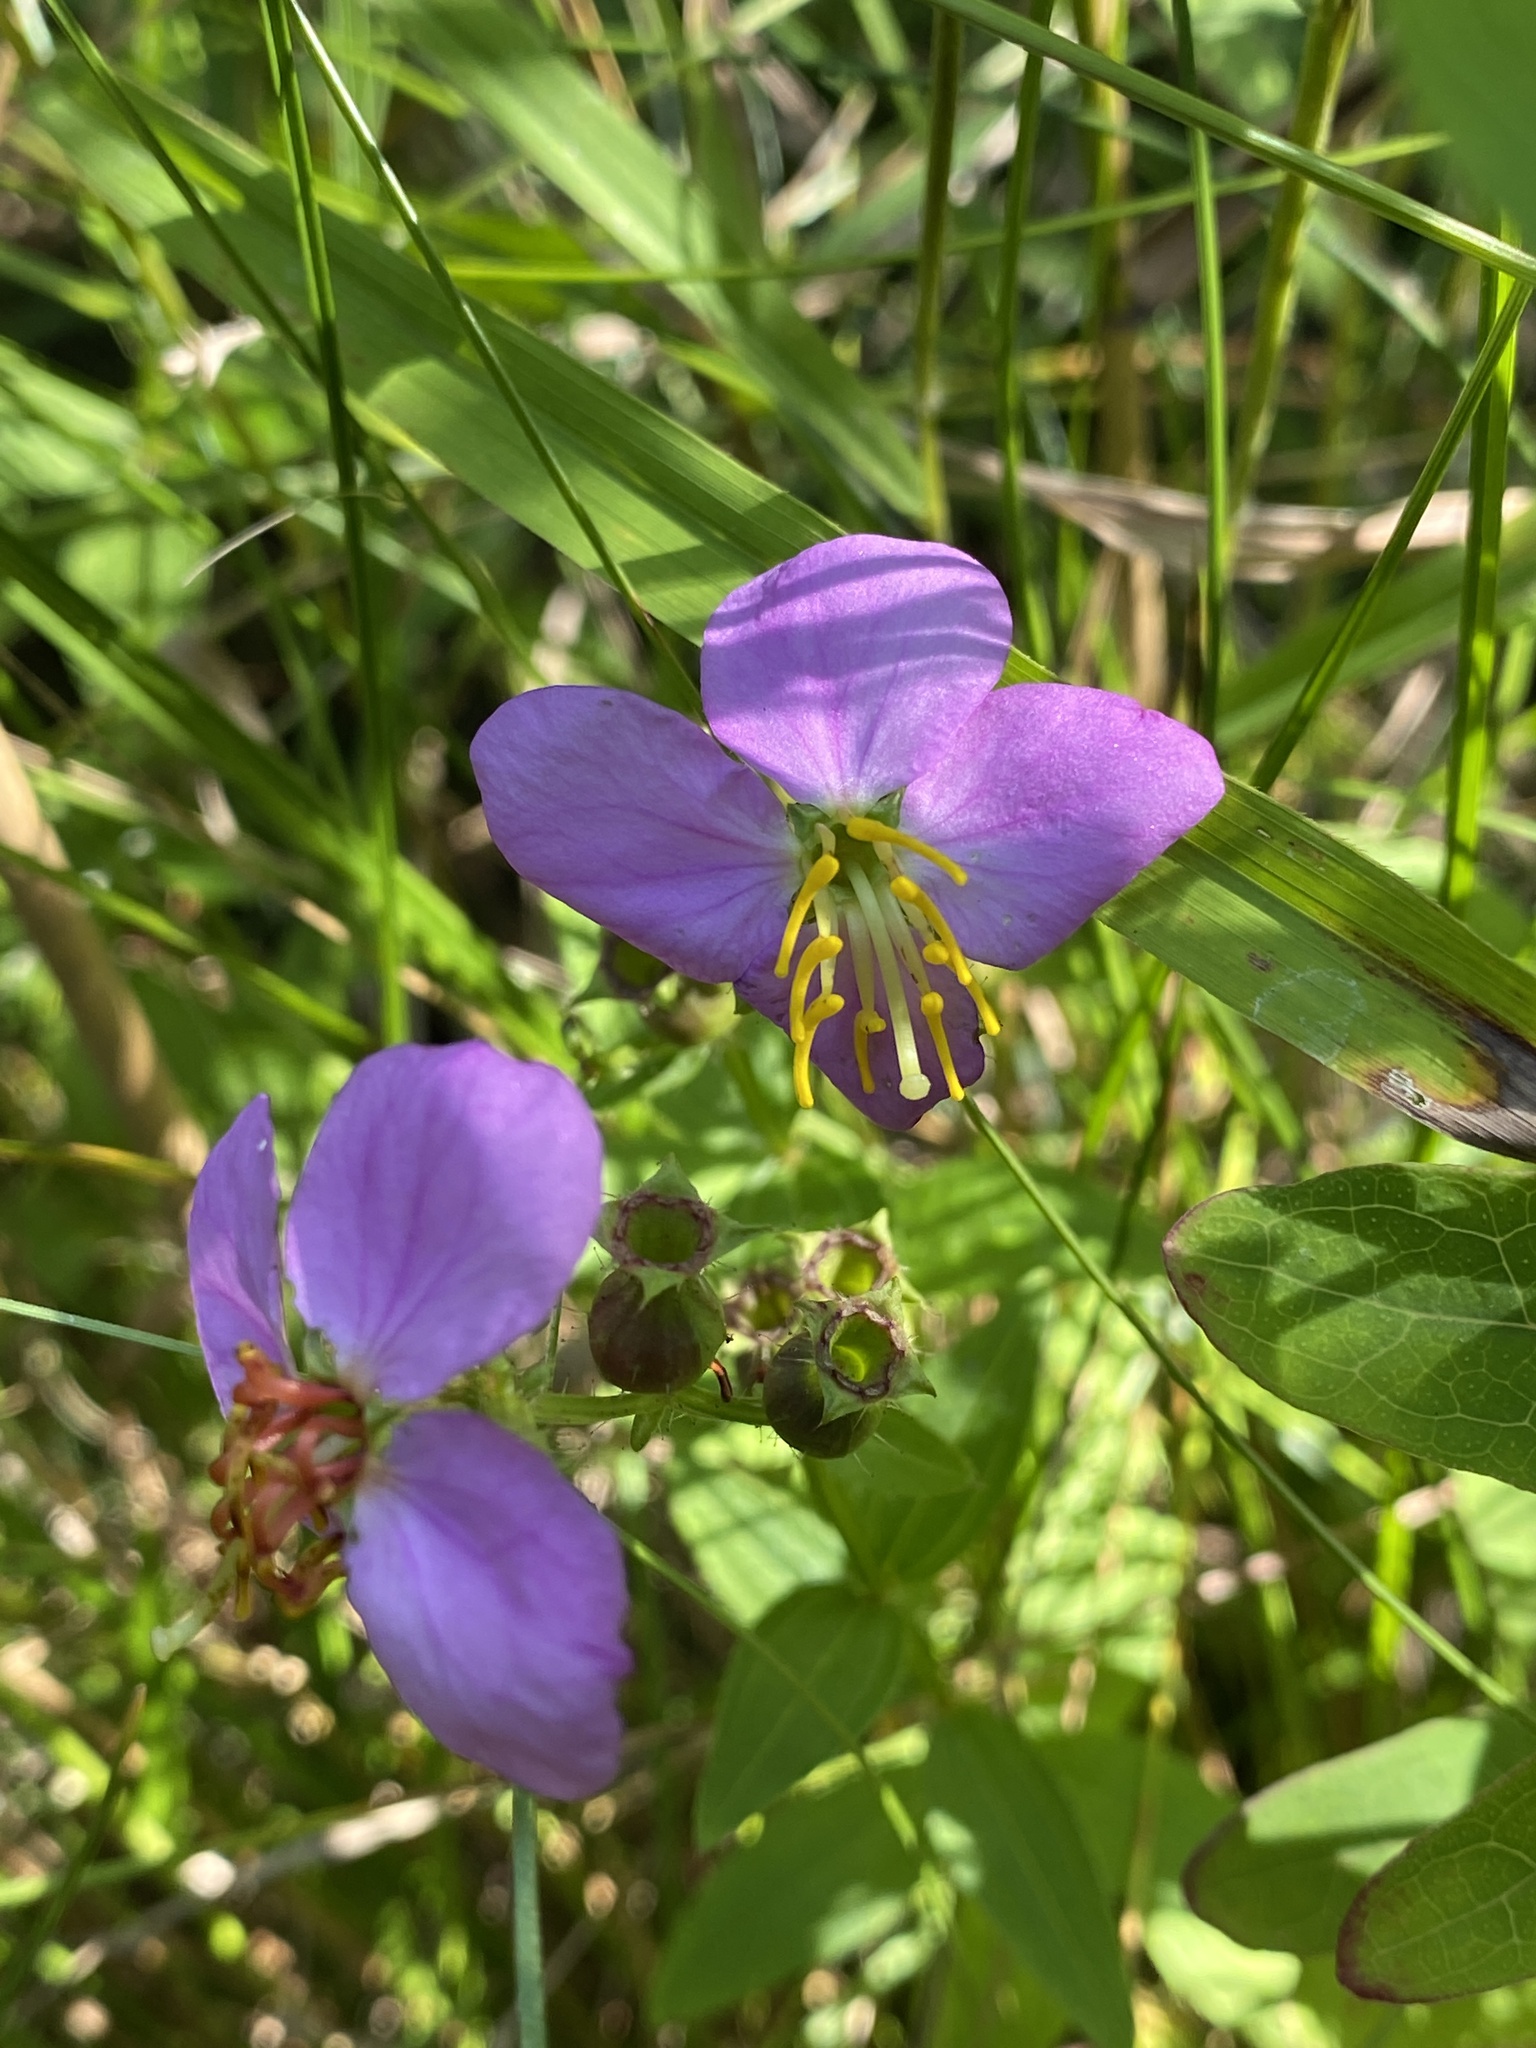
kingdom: Plantae
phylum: Tracheophyta
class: Magnoliopsida
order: Myrtales
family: Melastomataceae
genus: Rhexia
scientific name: Rhexia virginica
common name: Common meadow beauty
